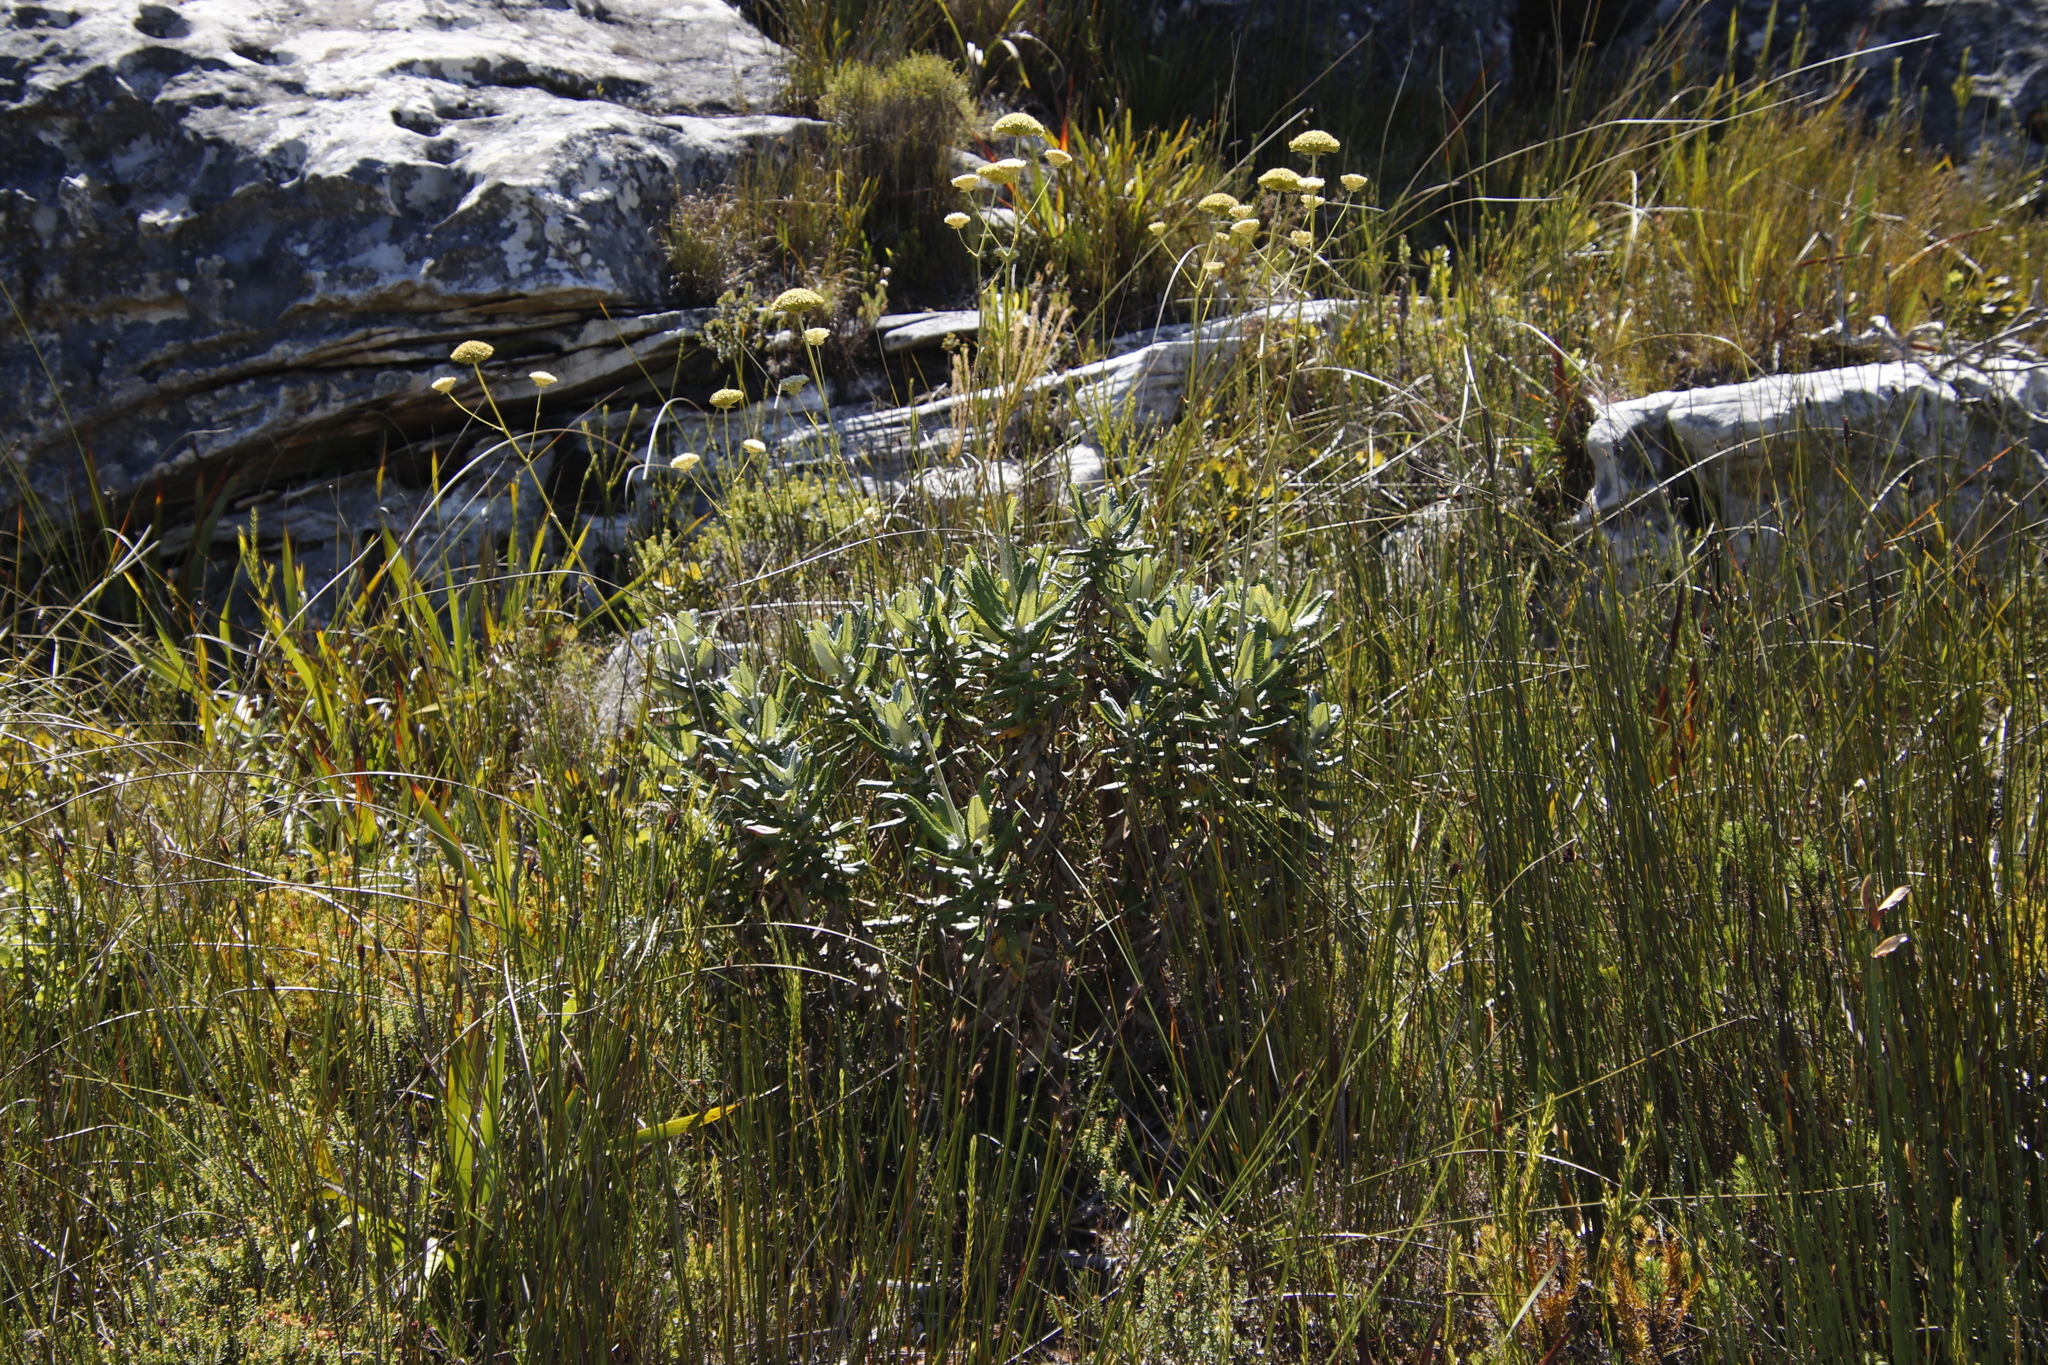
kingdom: Plantae
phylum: Tracheophyta
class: Magnoliopsida
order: Apiales
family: Apiaceae
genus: Hermas
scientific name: Hermas villosa
